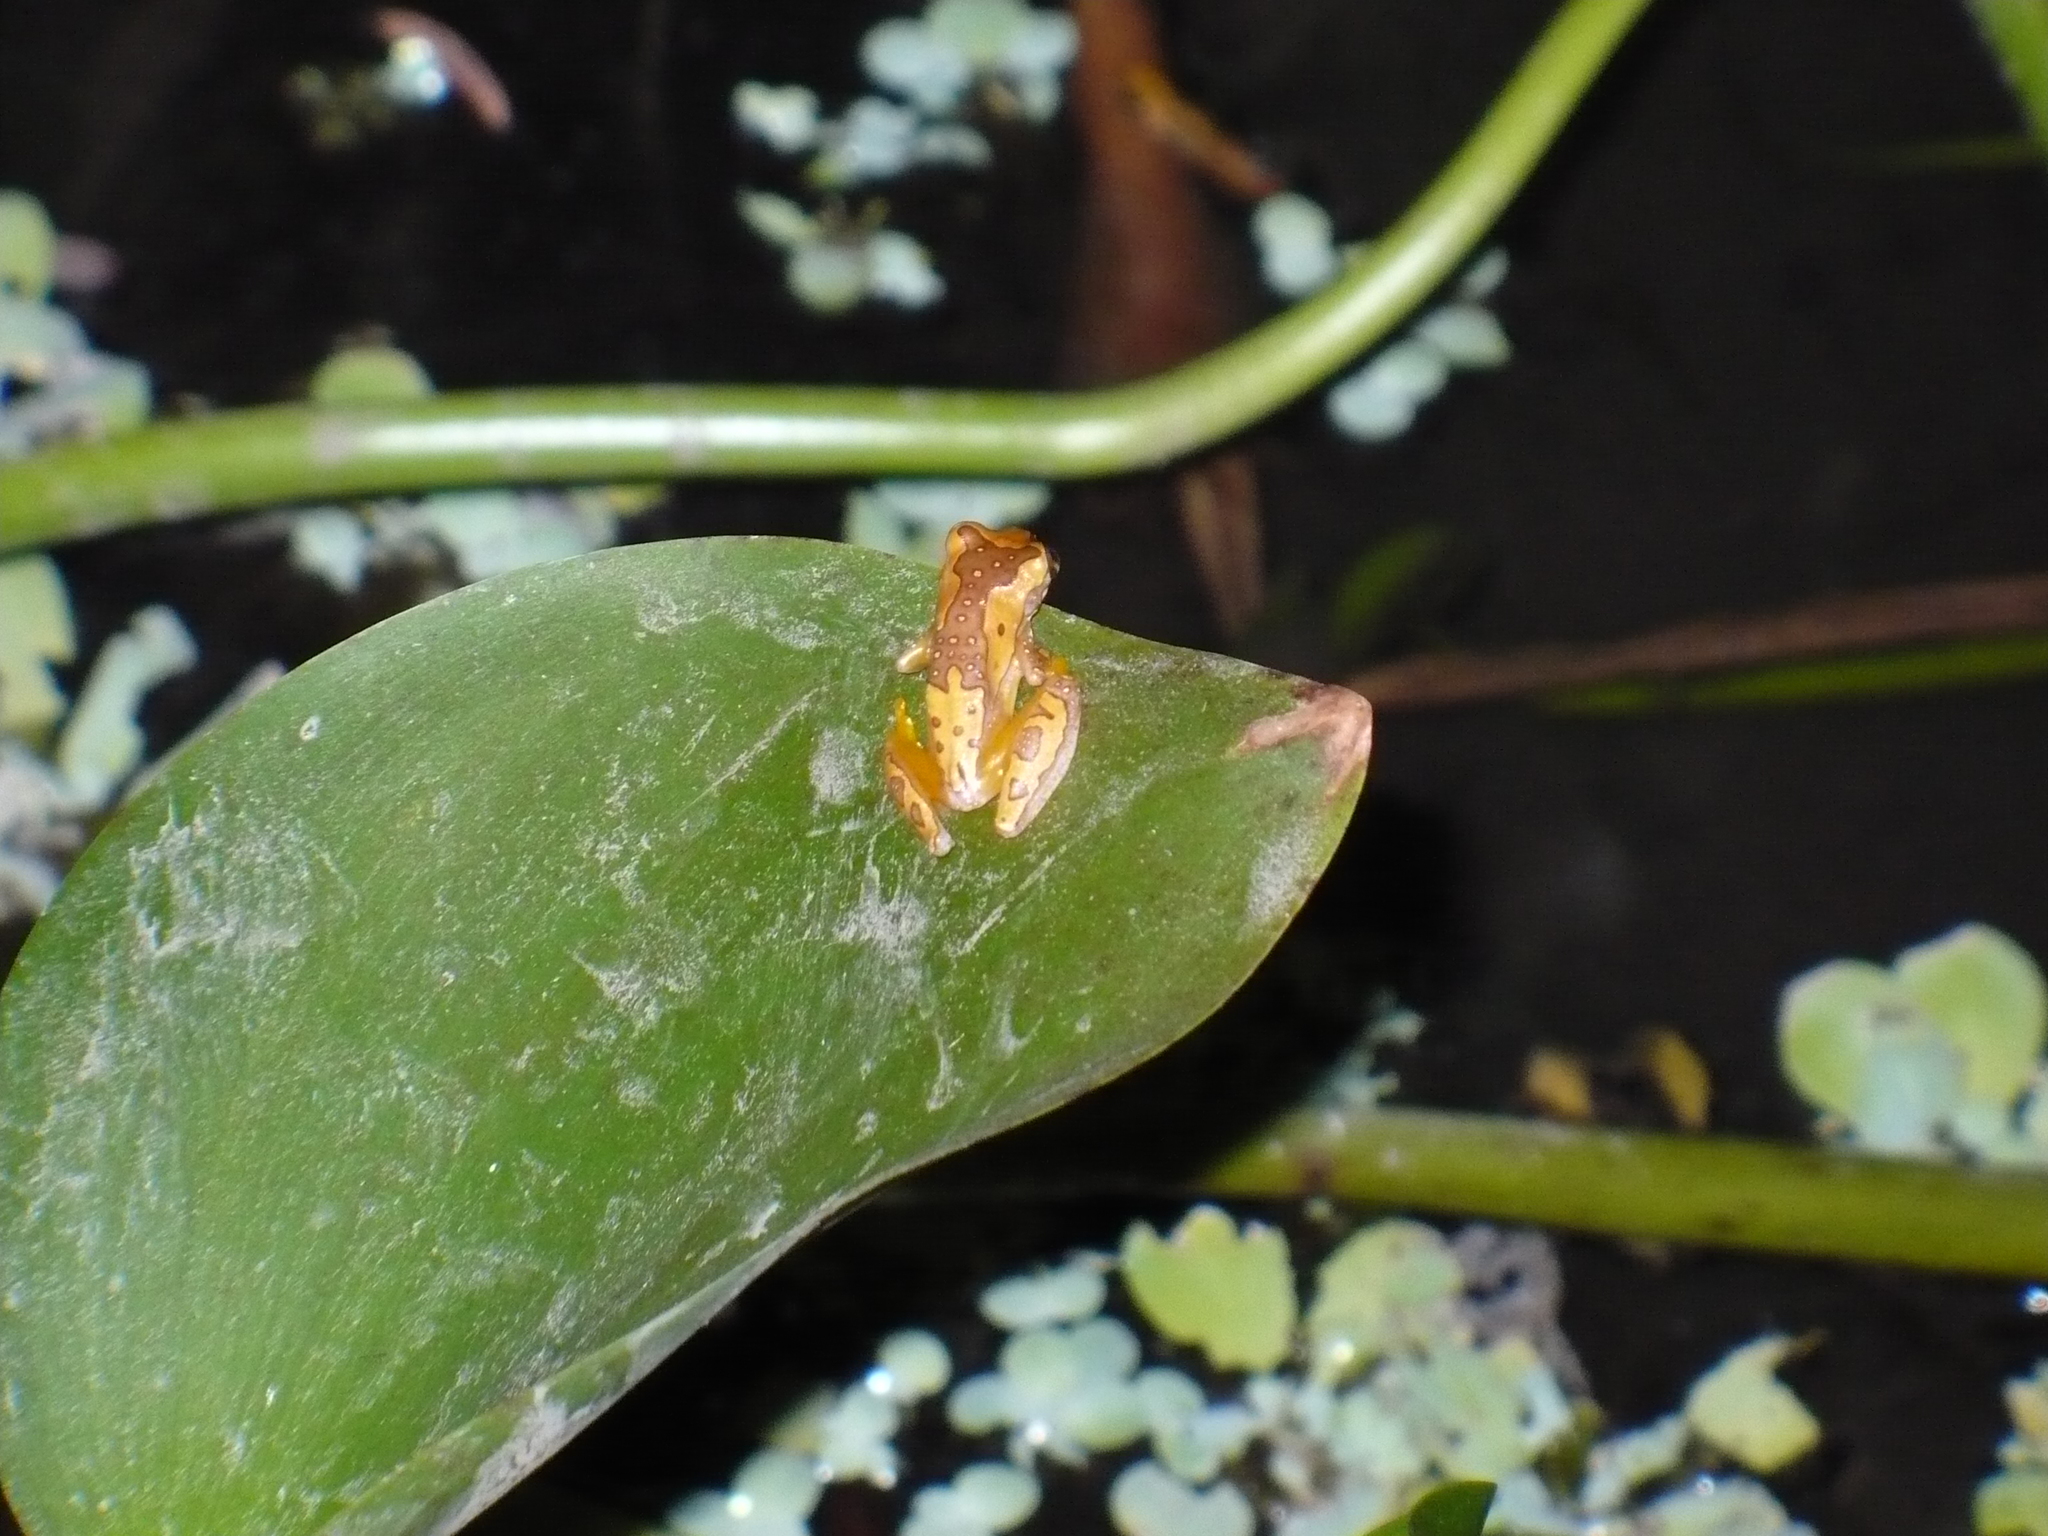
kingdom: Animalia
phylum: Chordata
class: Amphibia
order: Anura
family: Hylidae
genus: Dendropsophus
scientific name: Dendropsophus ebraccatus
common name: Hourglass treefrog
